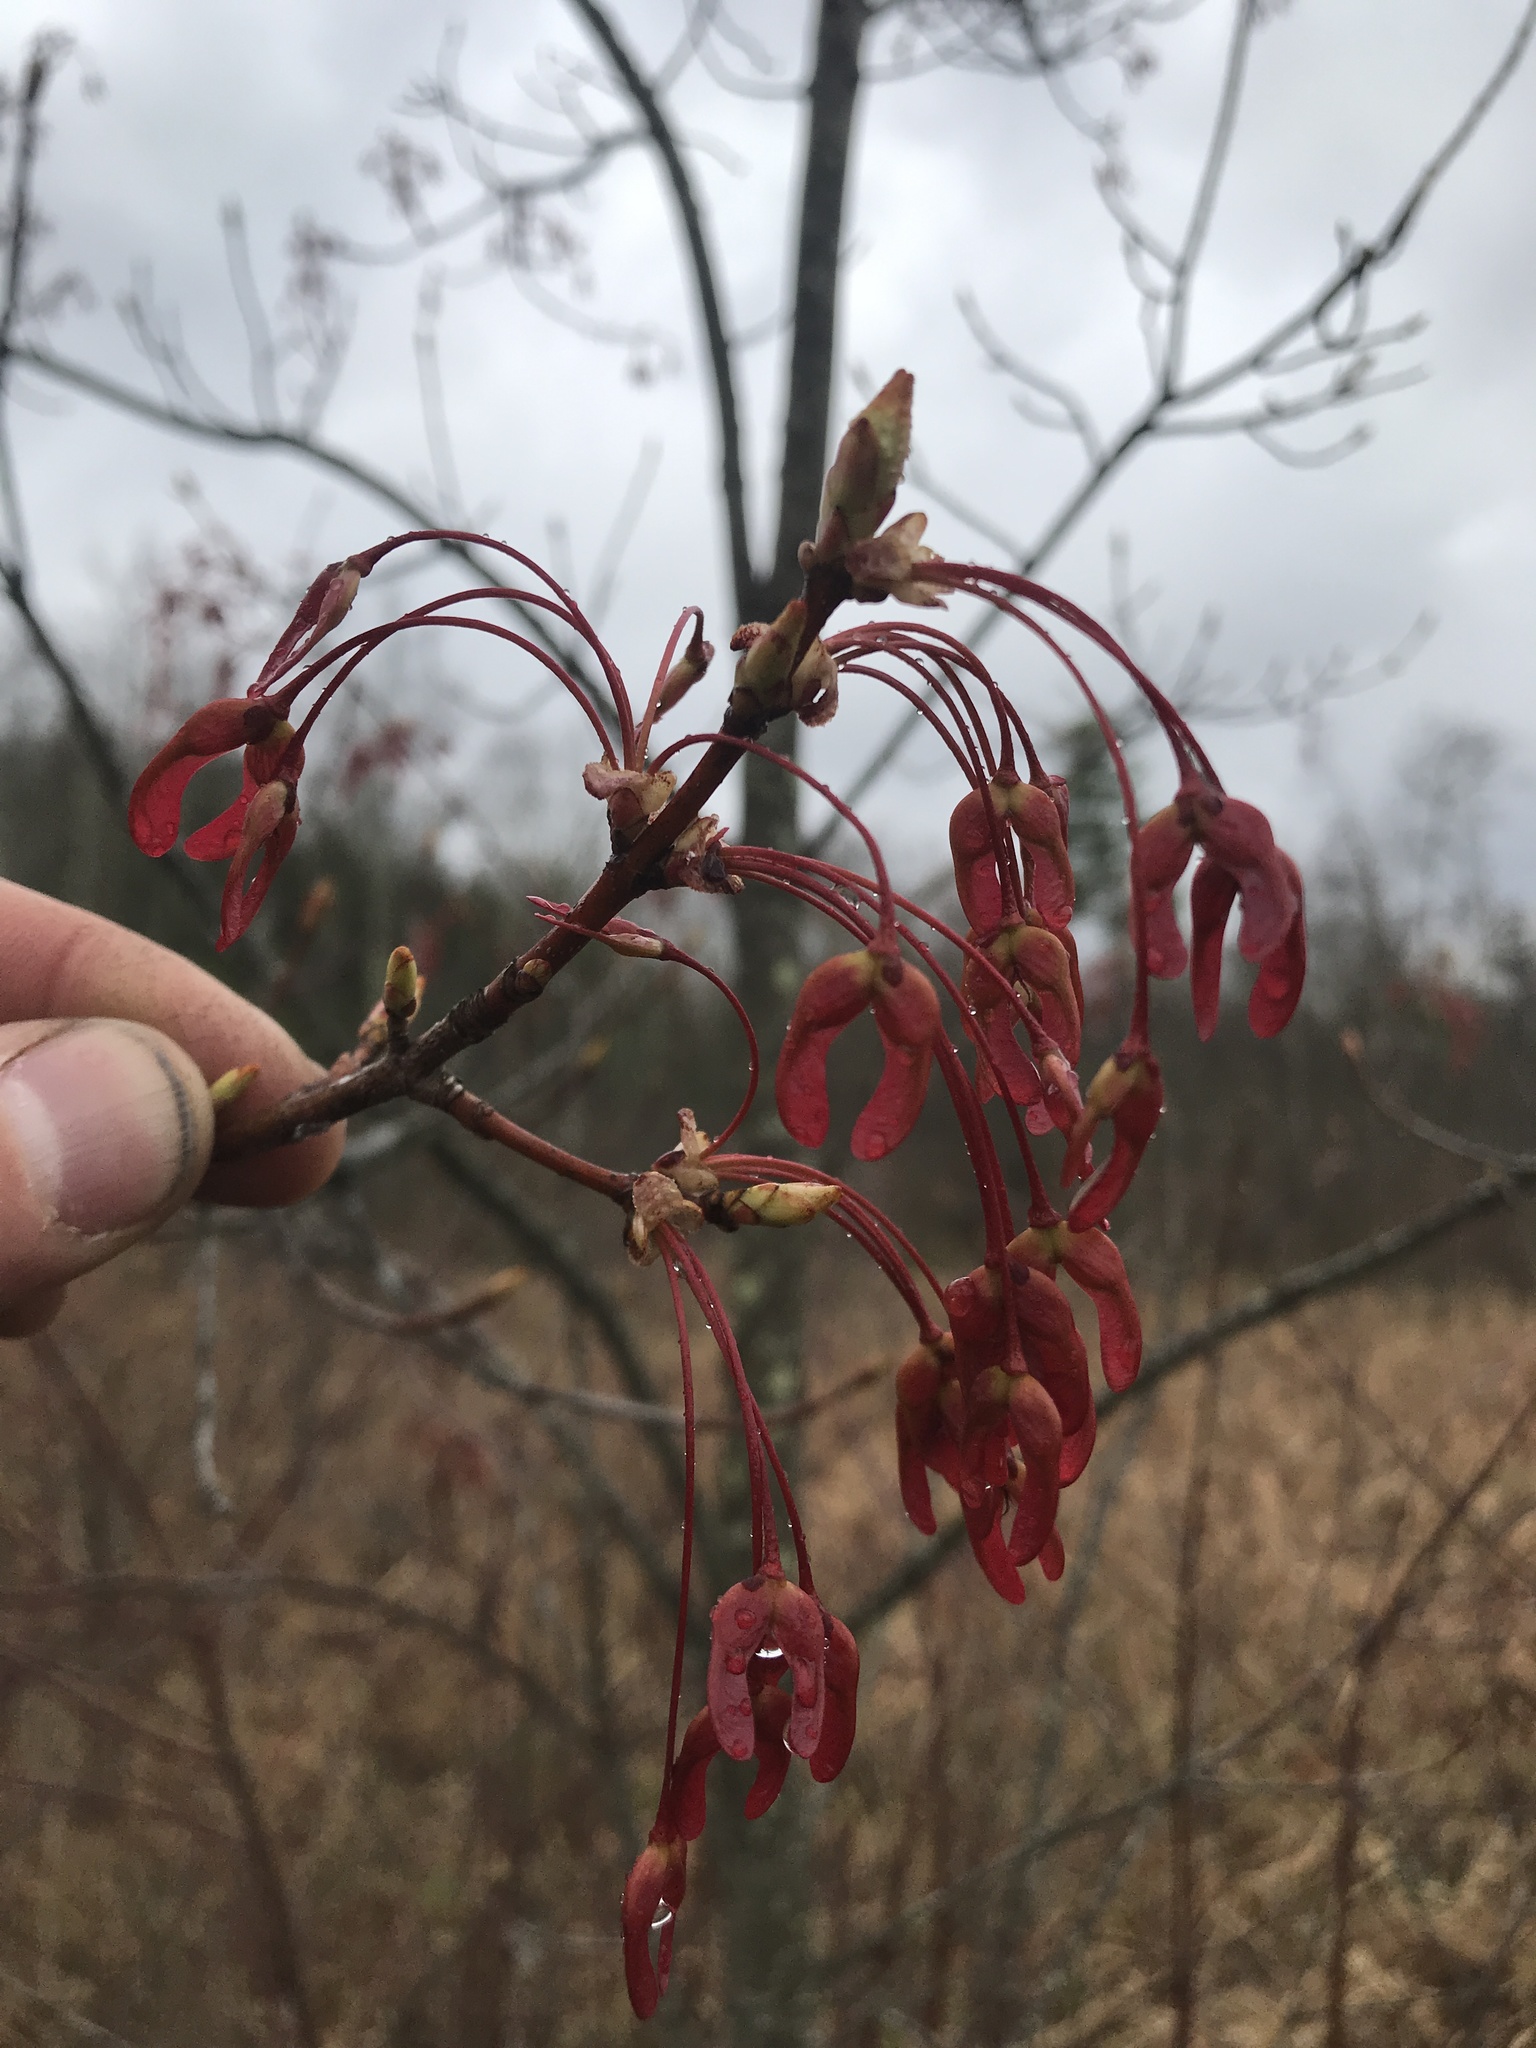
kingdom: Plantae
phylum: Tracheophyta
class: Magnoliopsida
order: Sapindales
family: Sapindaceae
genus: Acer
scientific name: Acer rubrum
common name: Red maple
